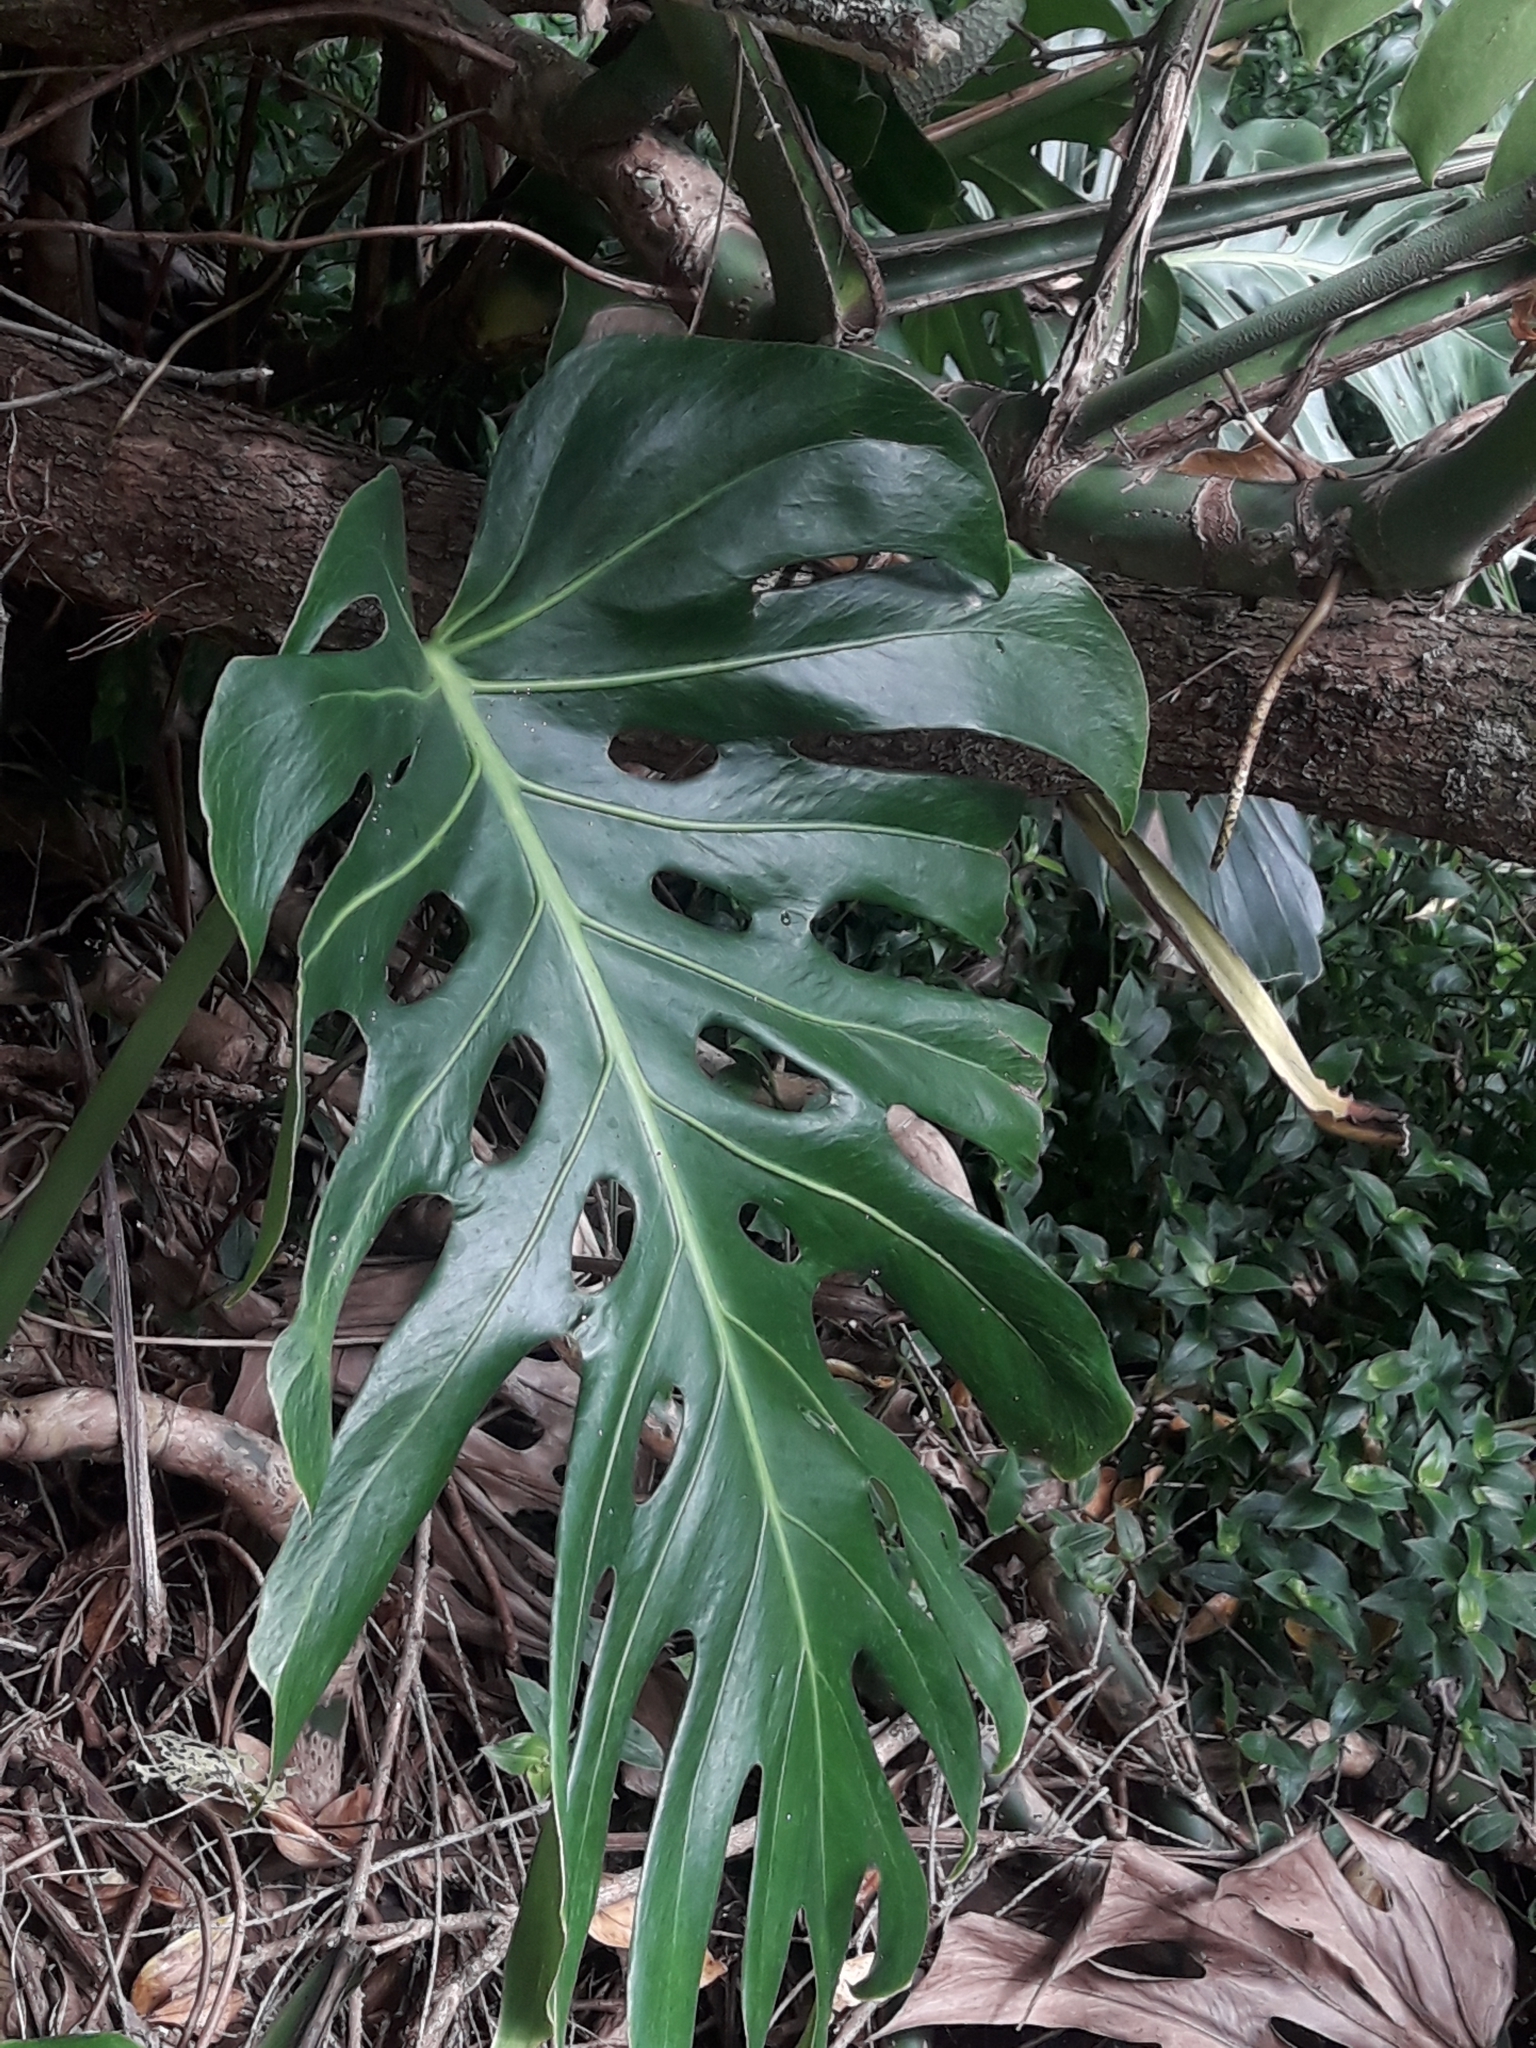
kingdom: Plantae
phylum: Tracheophyta
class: Liliopsida
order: Alismatales
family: Araceae
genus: Monstera
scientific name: Monstera deliciosa
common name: Cut-leaf-philodendron
